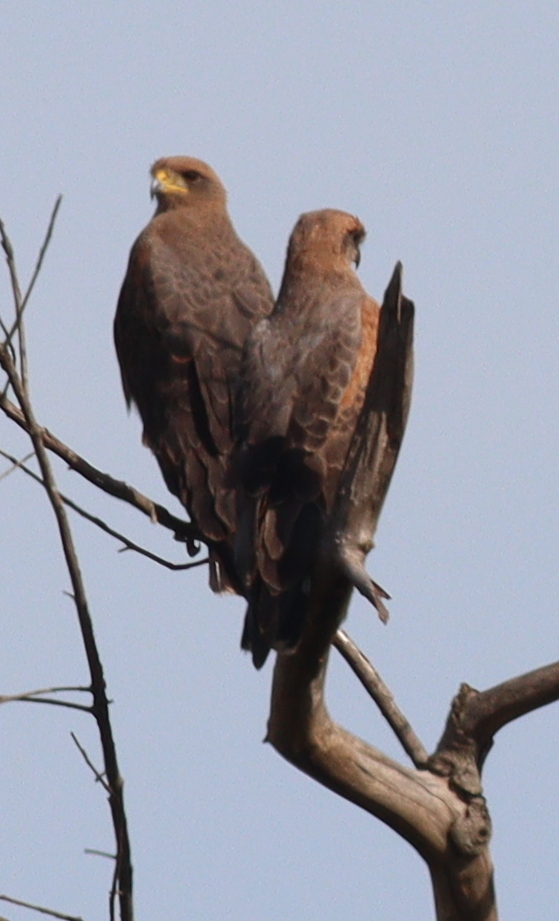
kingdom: Animalia
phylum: Chordata
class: Aves
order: Accipitriformes
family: Accipitridae
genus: Buteogallus
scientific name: Buteogallus meridionalis
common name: Savanna hawk
